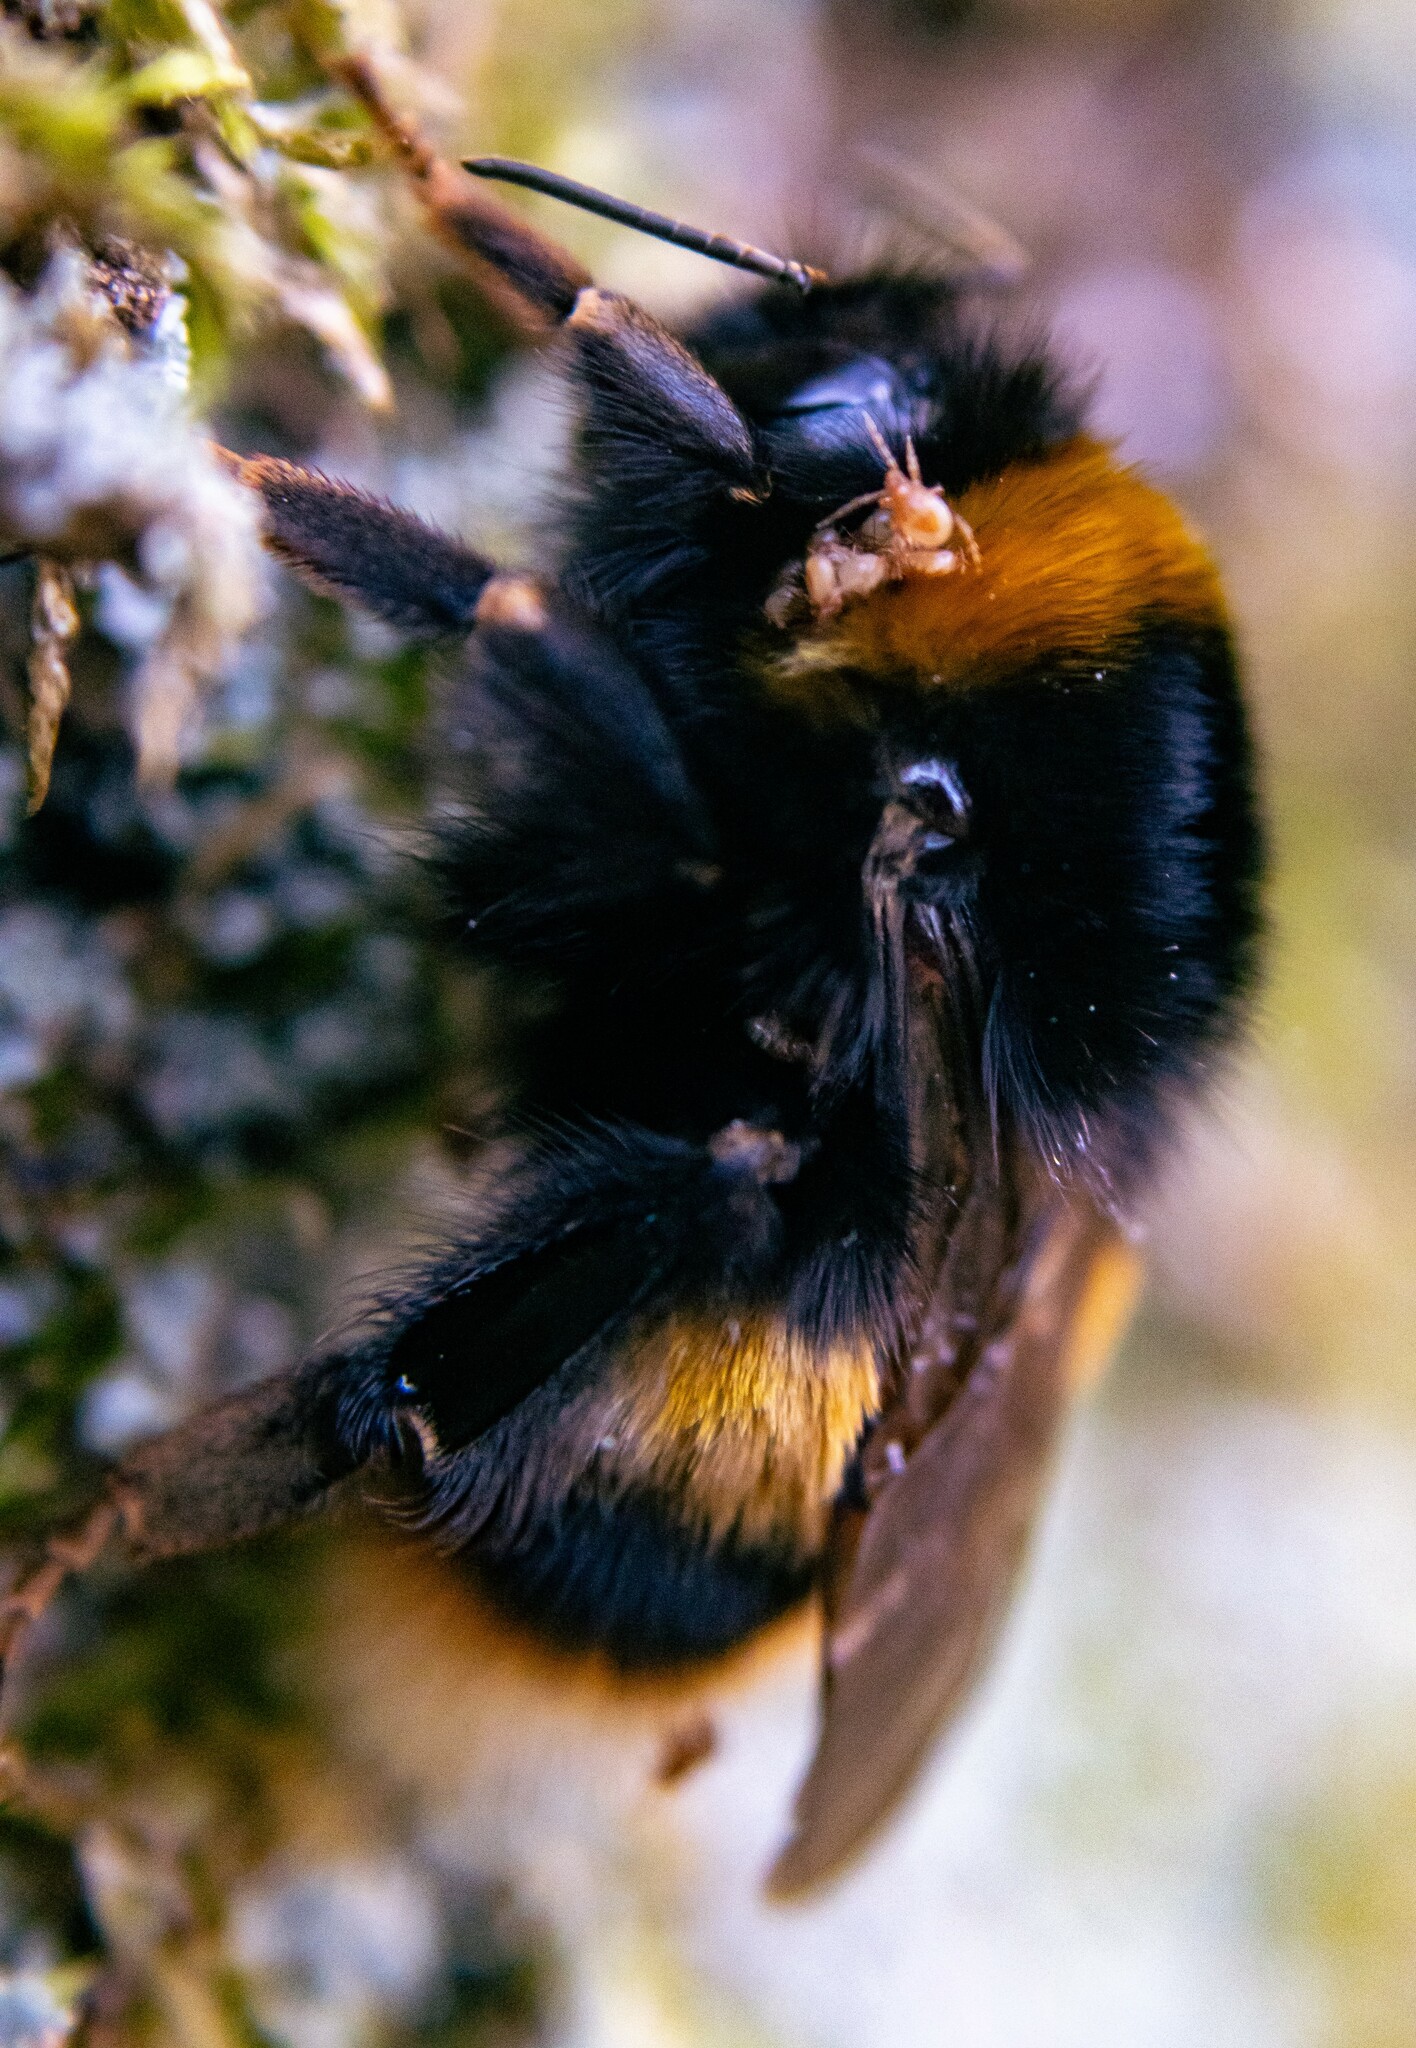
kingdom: Animalia
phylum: Arthropoda
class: Insecta
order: Hymenoptera
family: Apidae
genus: Bombus
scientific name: Bombus terrestris
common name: Buff-tailed bumblebee
